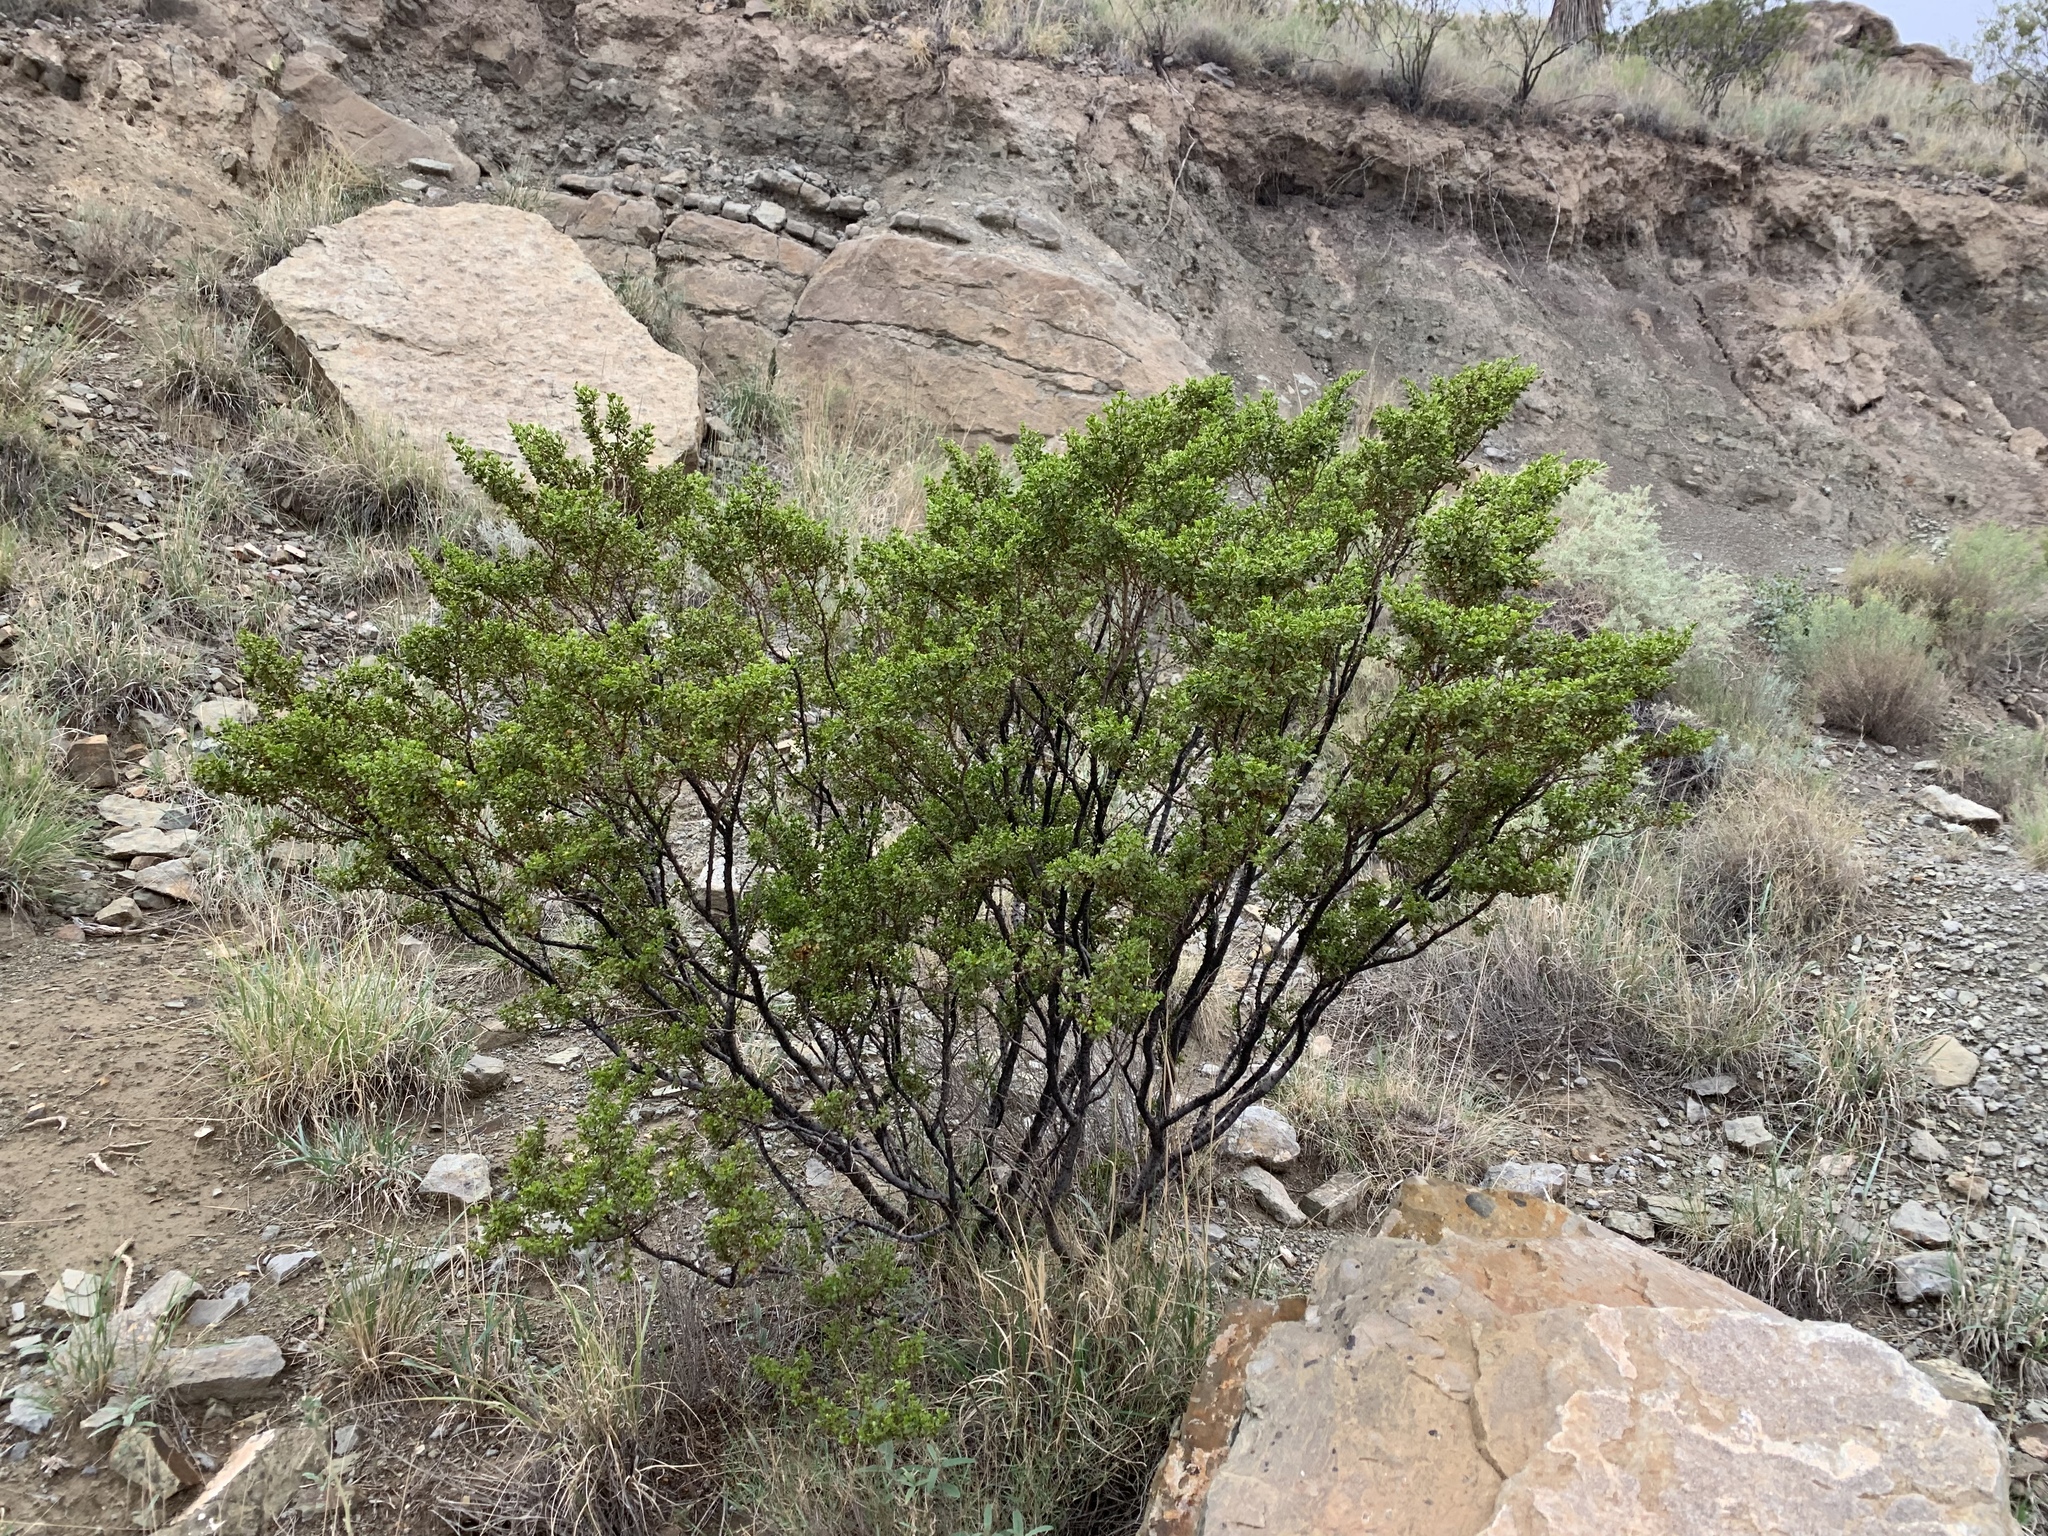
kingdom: Plantae
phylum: Tracheophyta
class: Magnoliopsida
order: Zygophyllales
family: Zygophyllaceae
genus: Larrea
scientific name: Larrea tridentata
